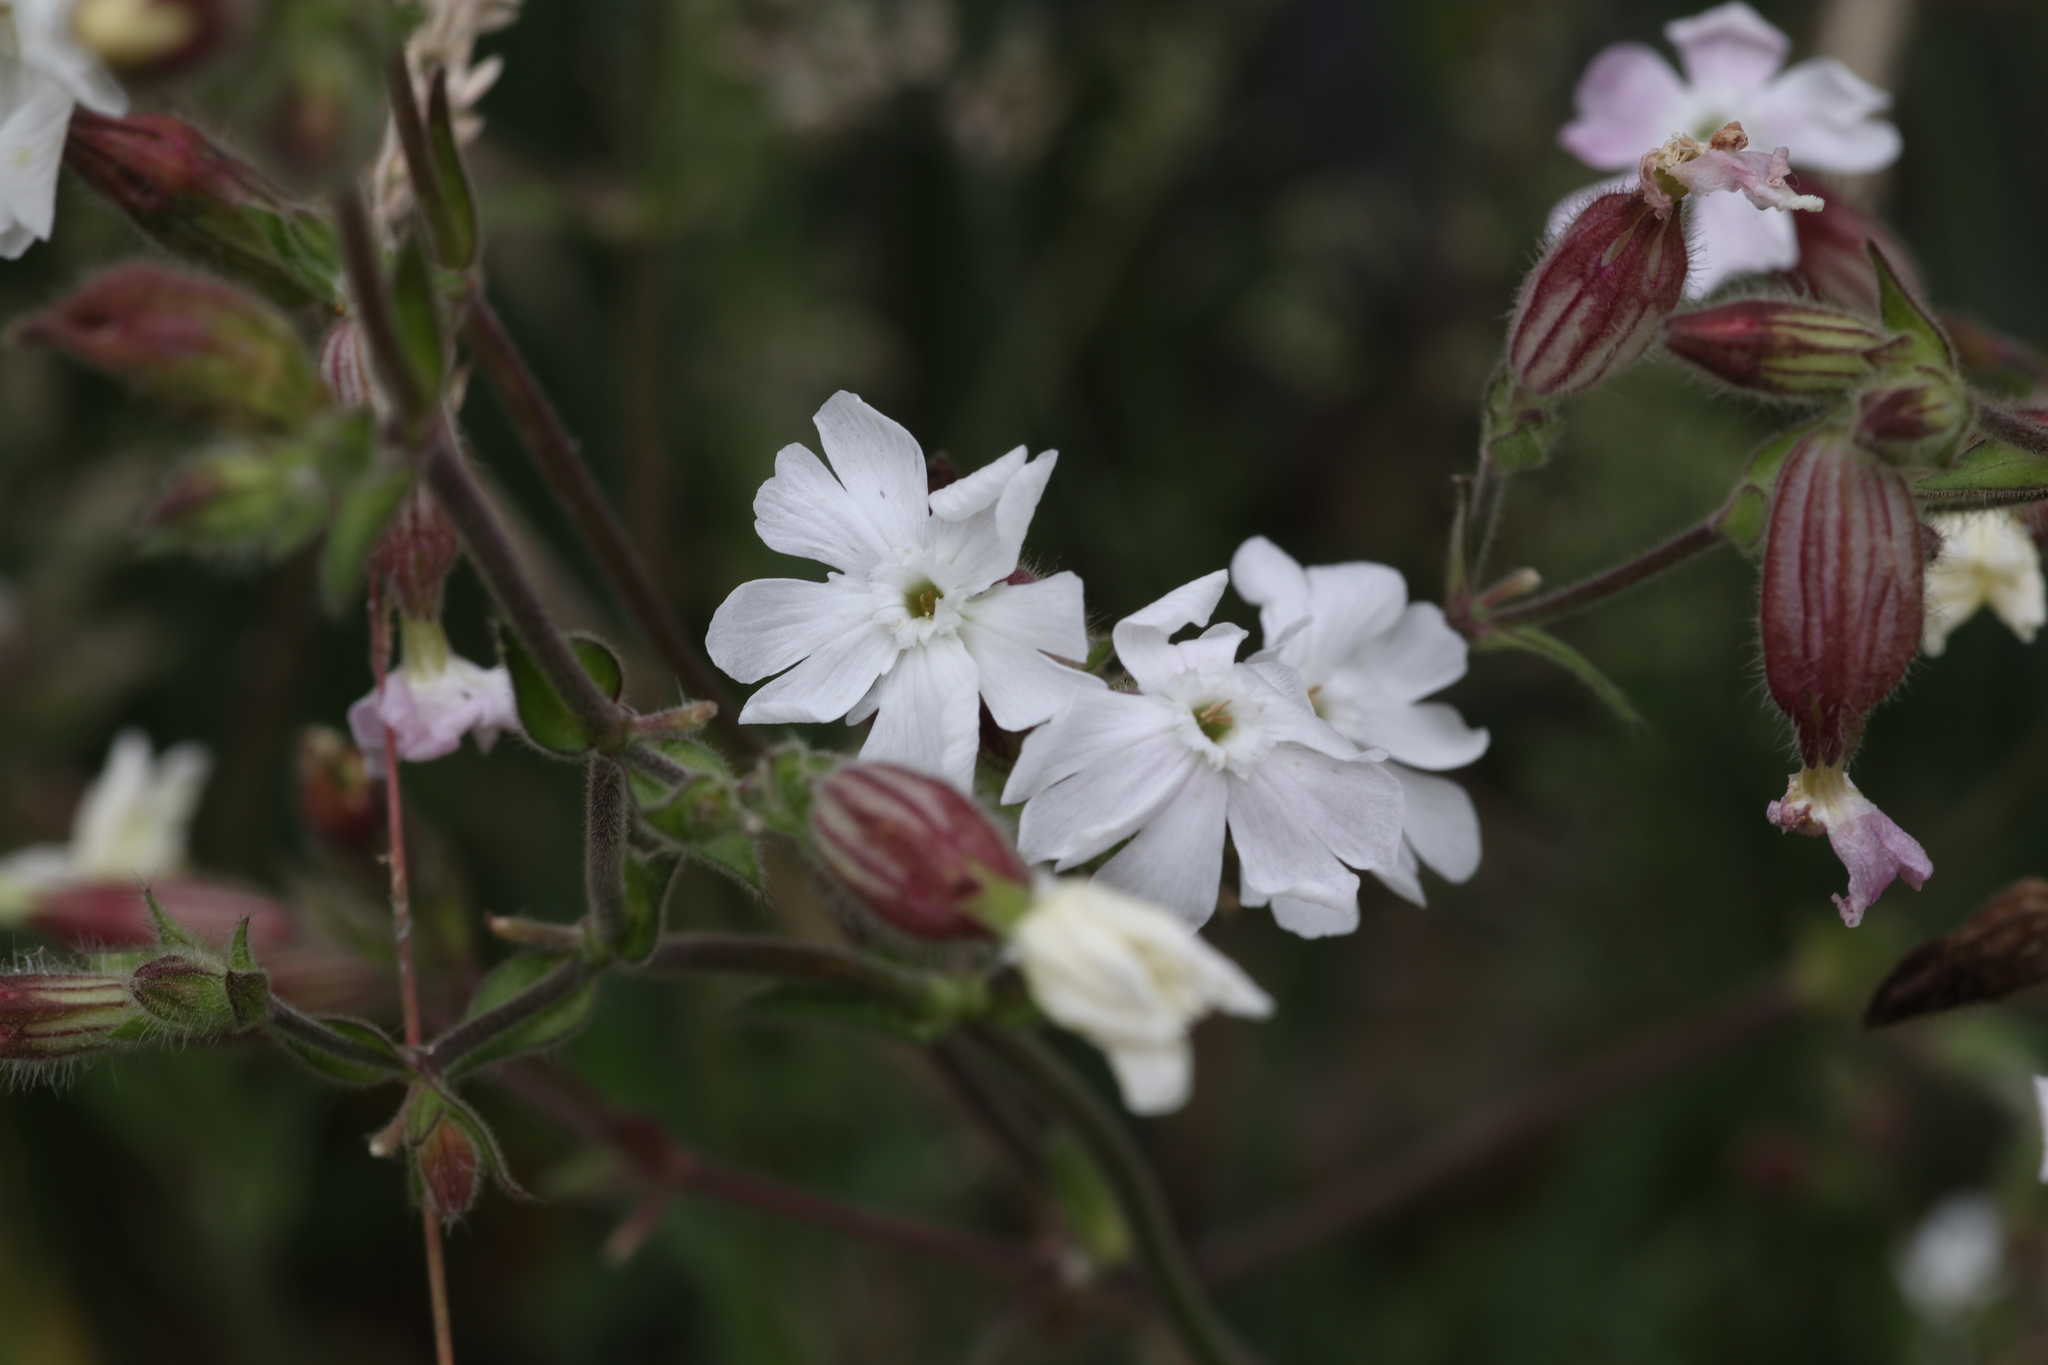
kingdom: Plantae
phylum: Tracheophyta
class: Magnoliopsida
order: Caryophyllales
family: Caryophyllaceae
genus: Silene
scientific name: Silene latifolia
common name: White campion
